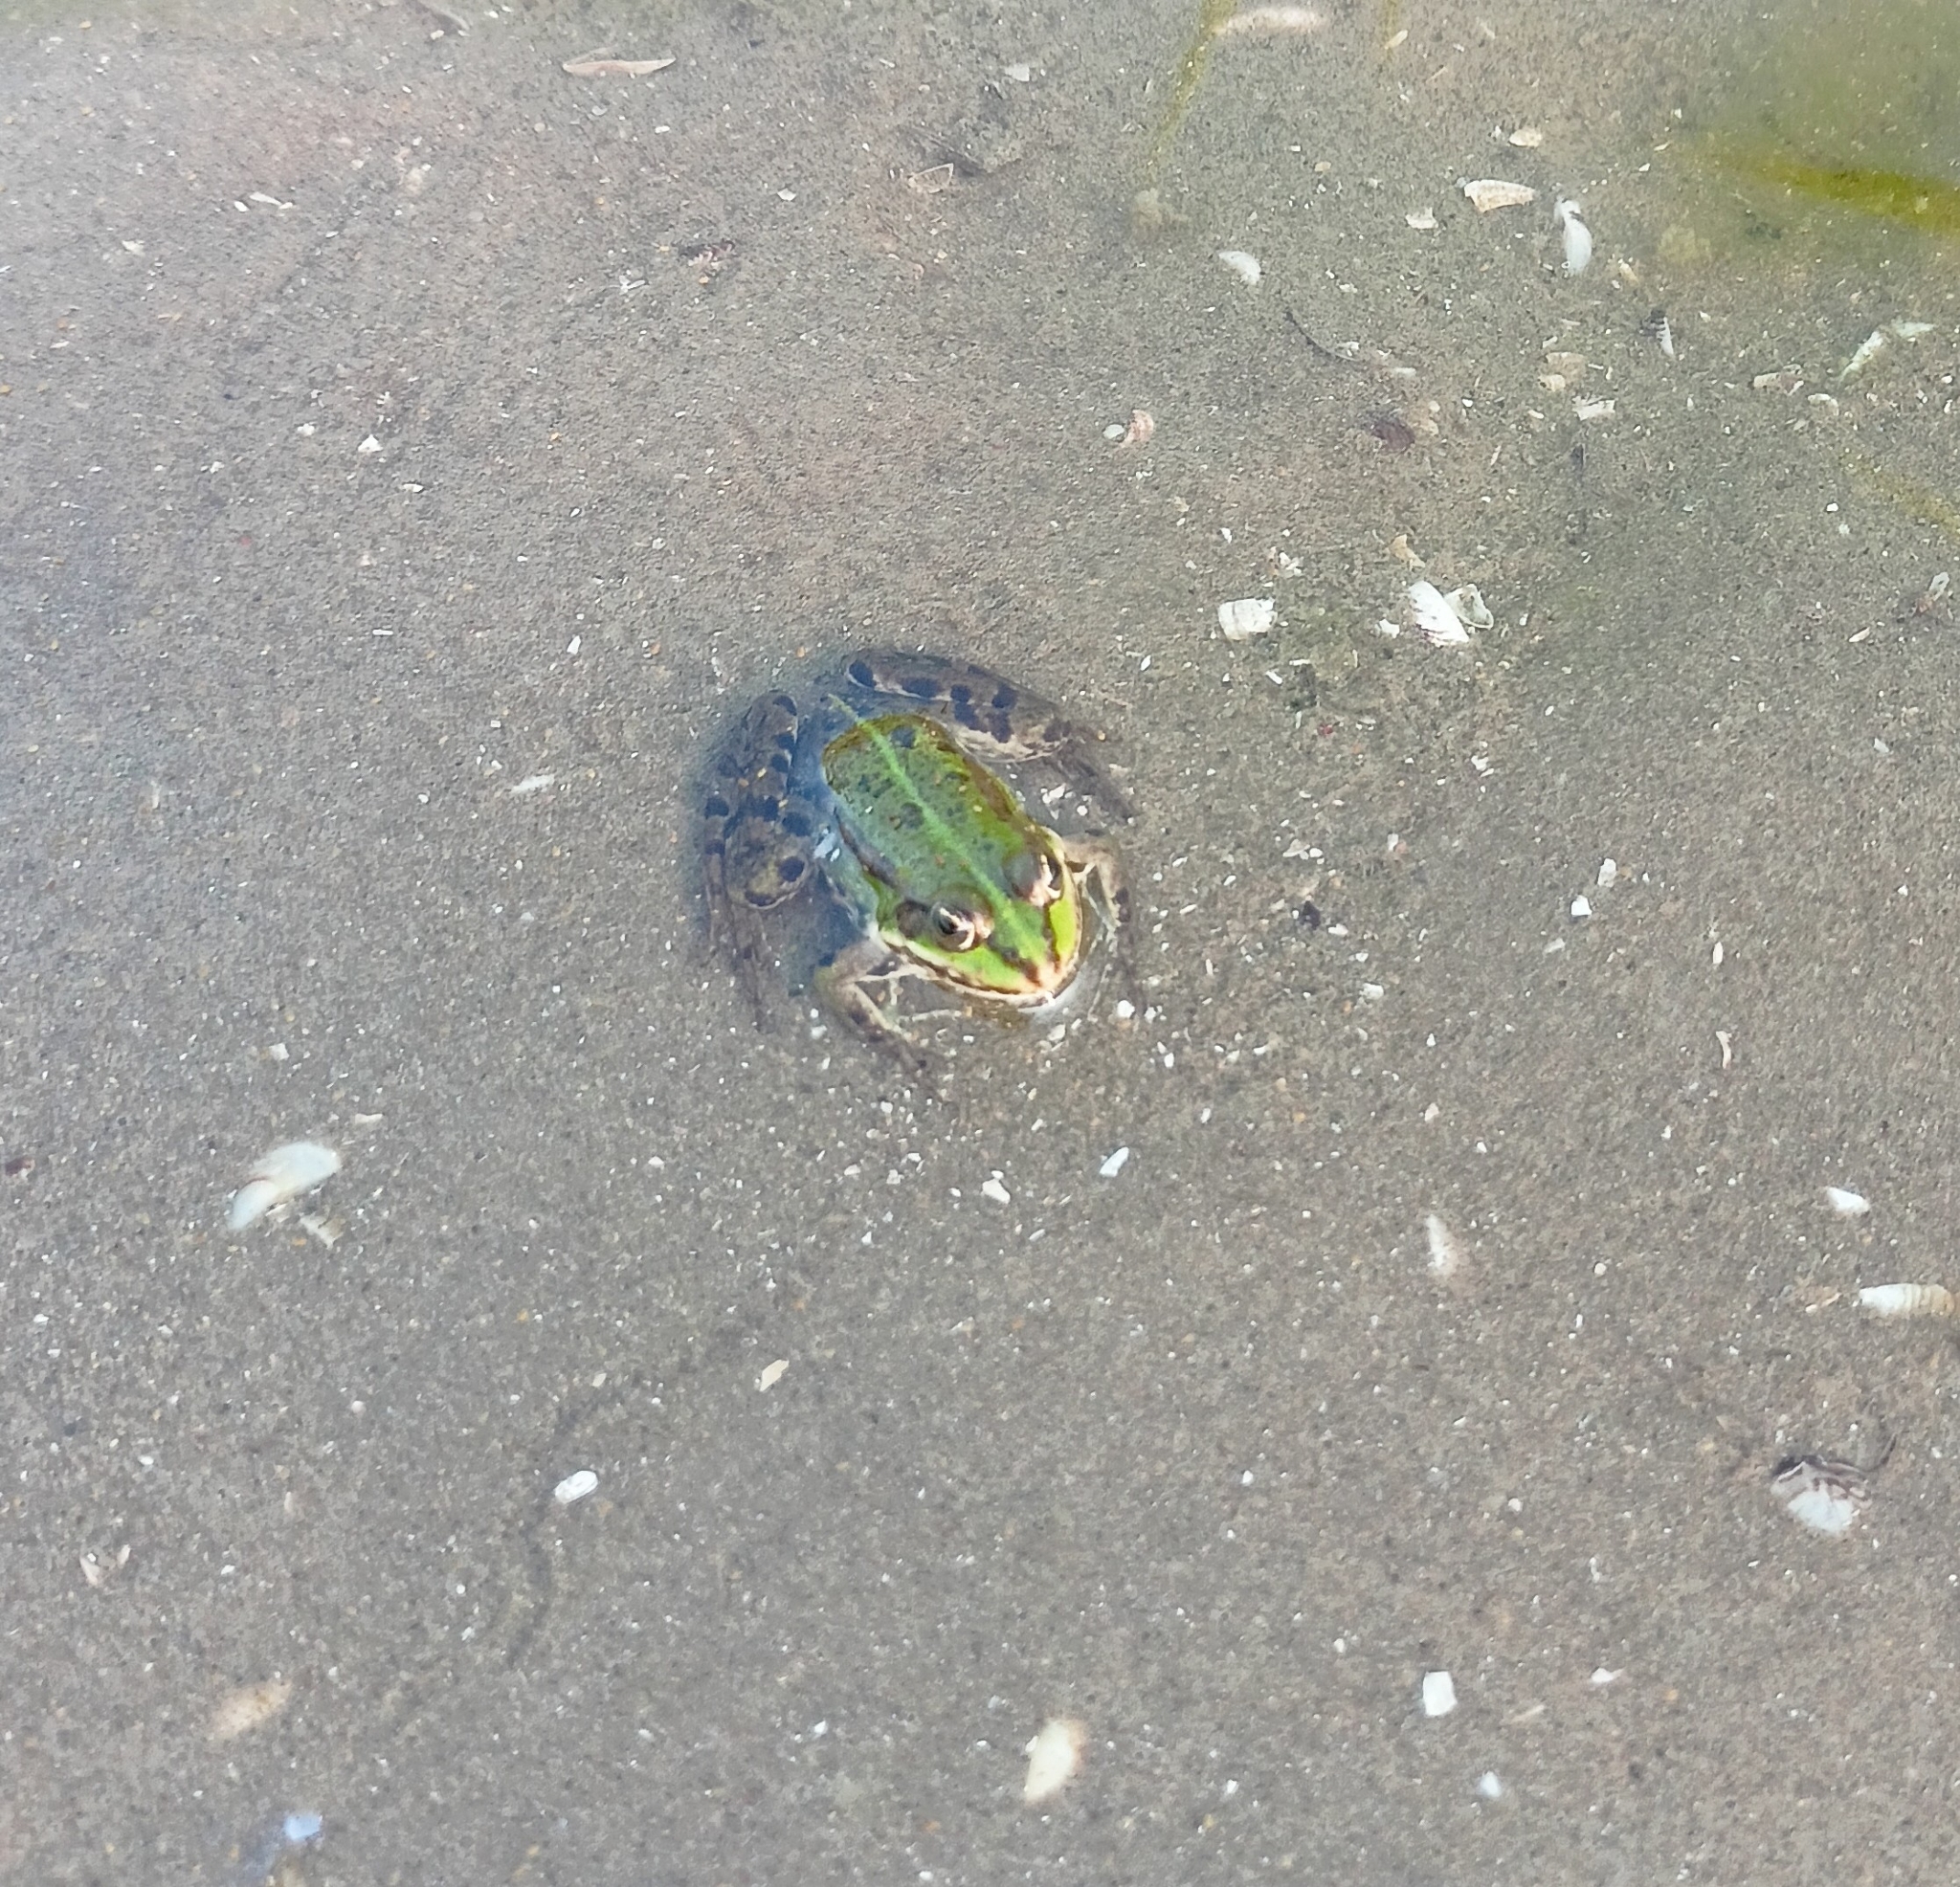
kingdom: Animalia
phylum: Chordata
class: Amphibia
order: Anura
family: Ranidae
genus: Pelophylax
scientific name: Pelophylax
